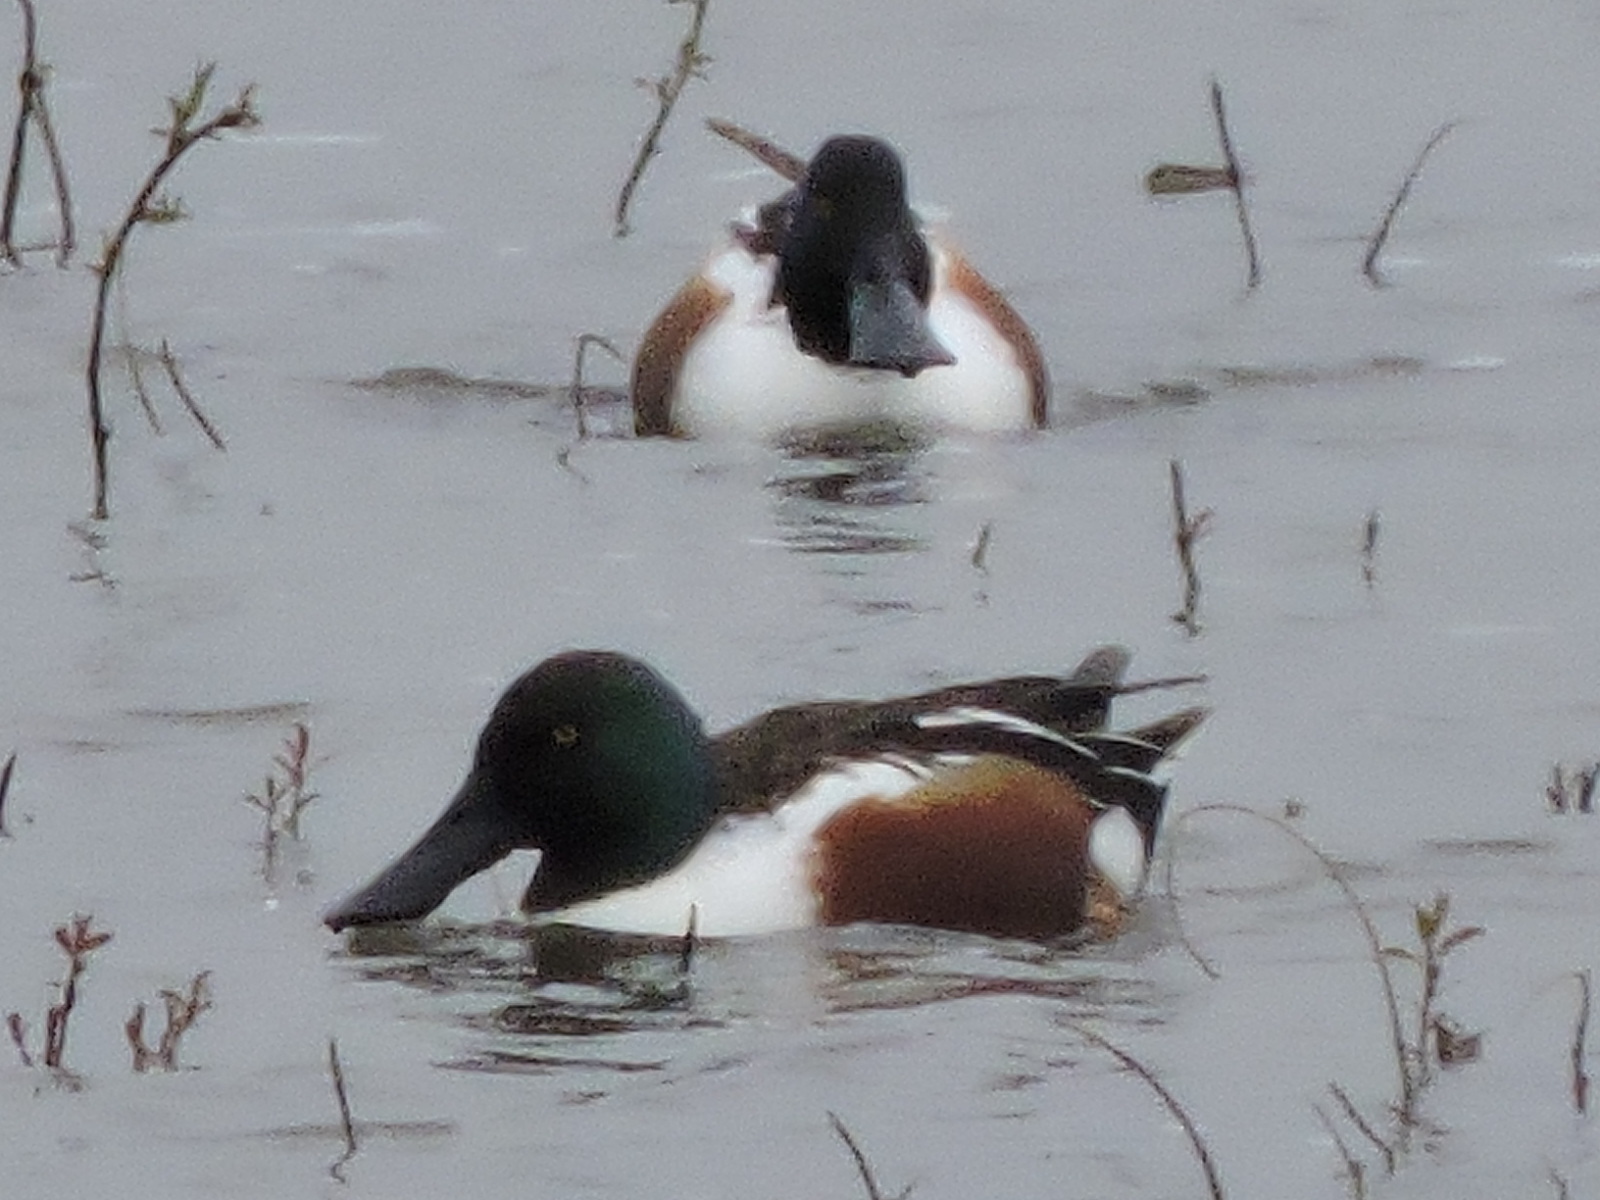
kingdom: Animalia
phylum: Chordata
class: Aves
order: Anseriformes
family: Anatidae
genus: Spatula
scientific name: Spatula clypeata
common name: Northern shoveler
